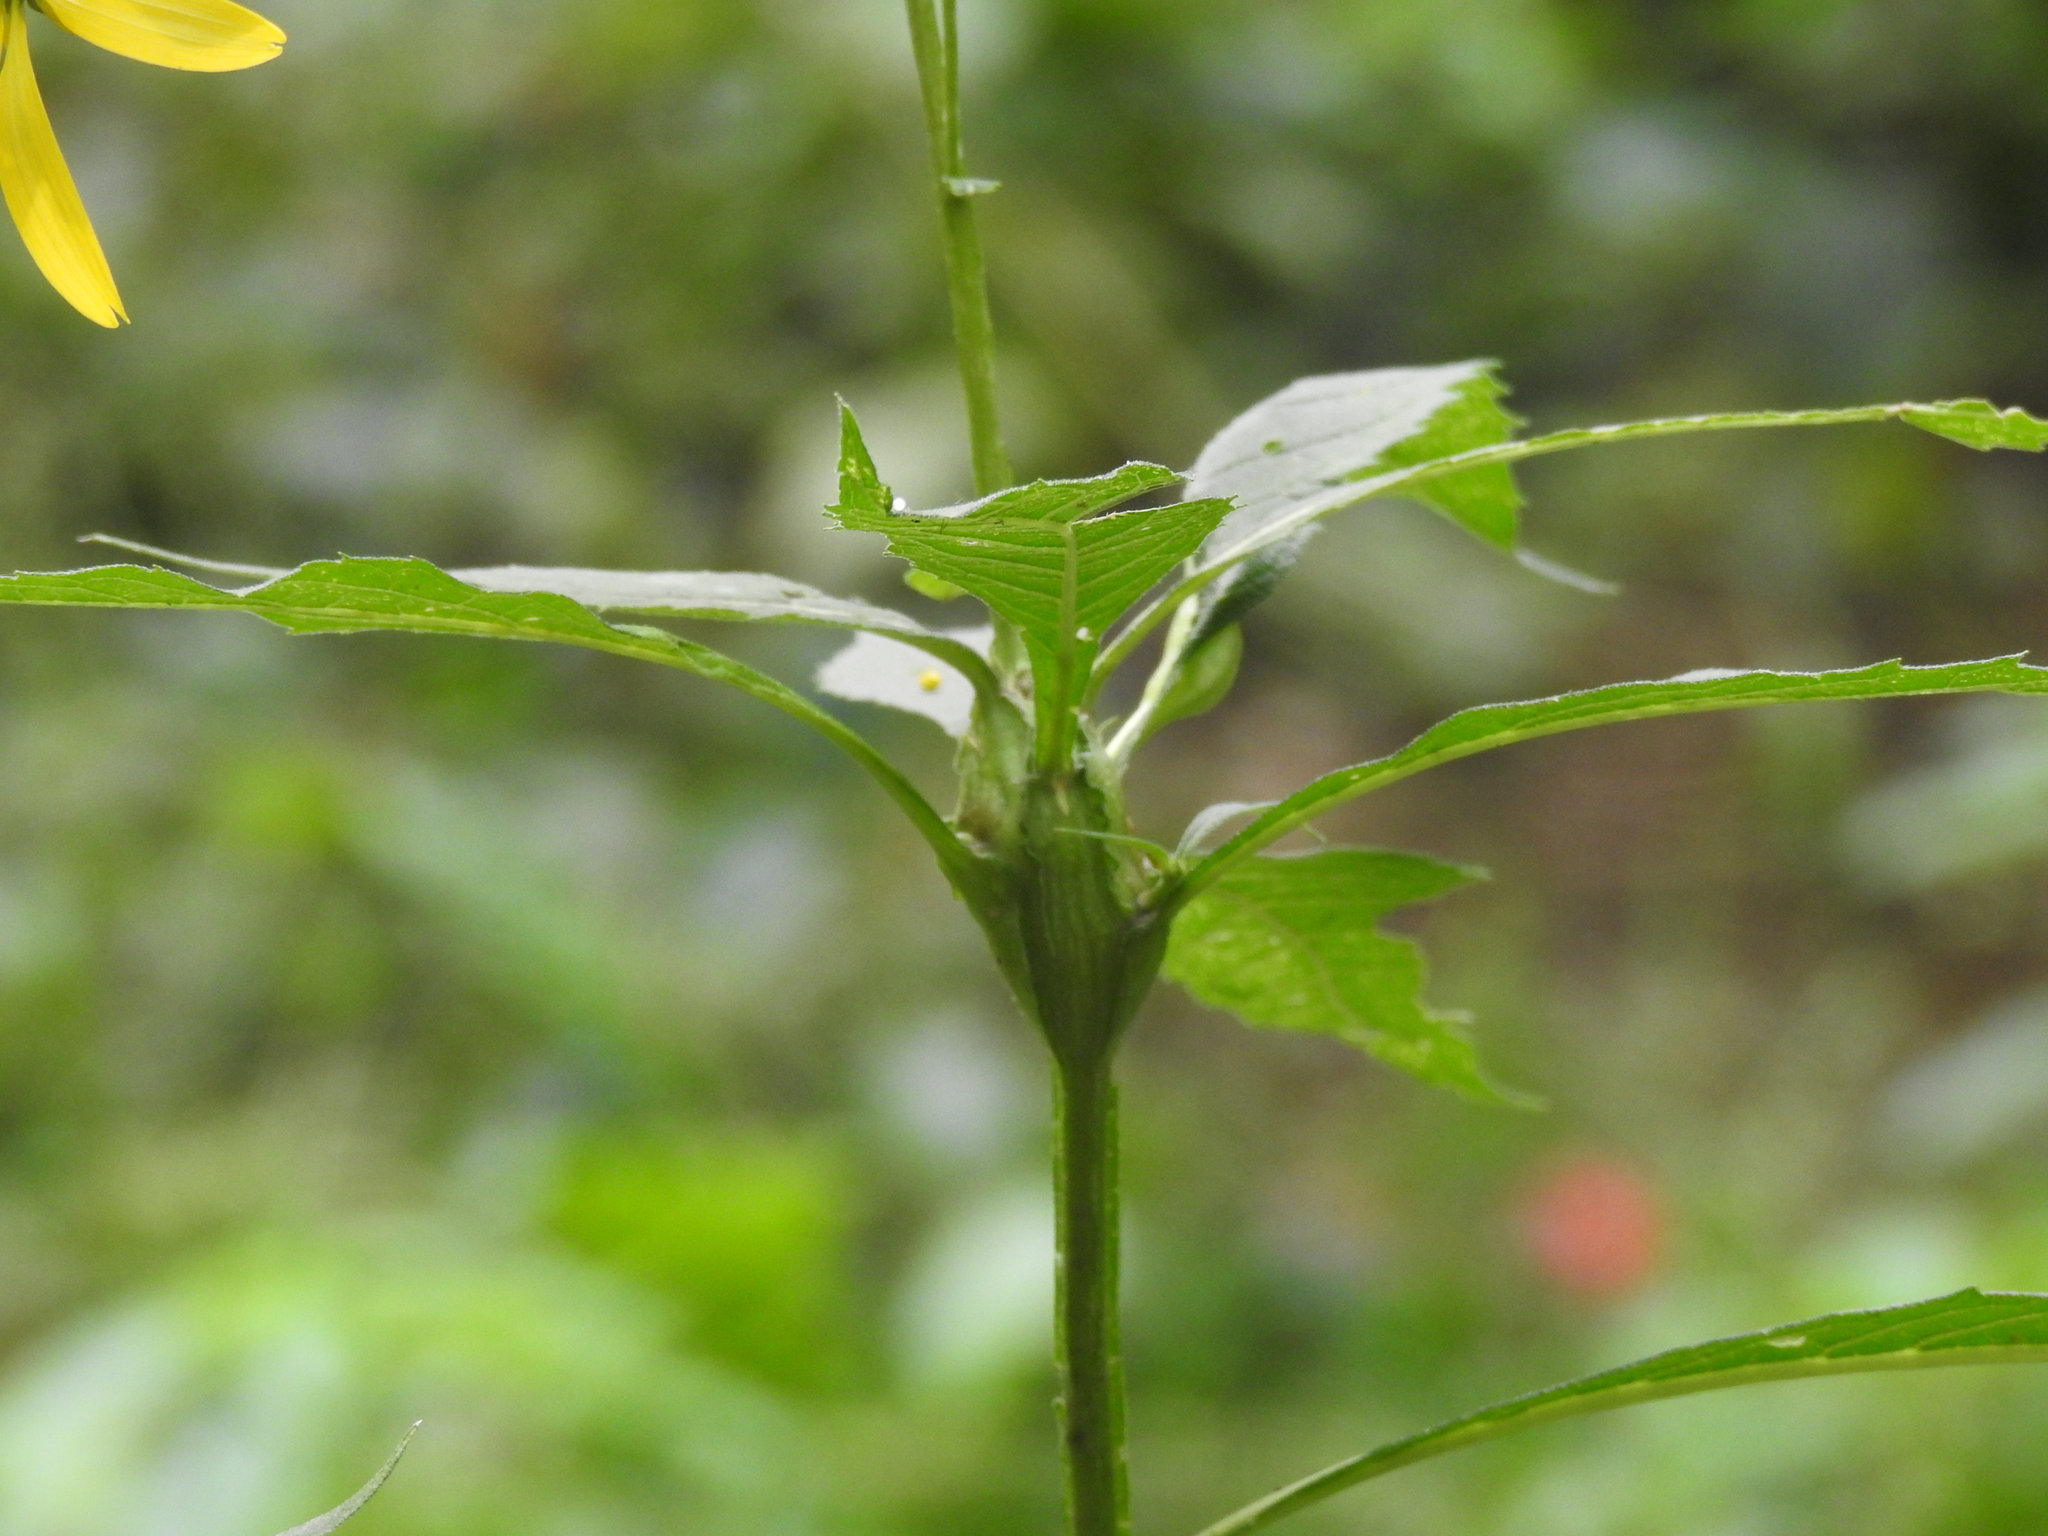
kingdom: Animalia
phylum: Arthropoda
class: Insecta
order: Diptera
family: Cecidomyiidae
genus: Neolasioptera
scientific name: Neolasioptera verbesinae
